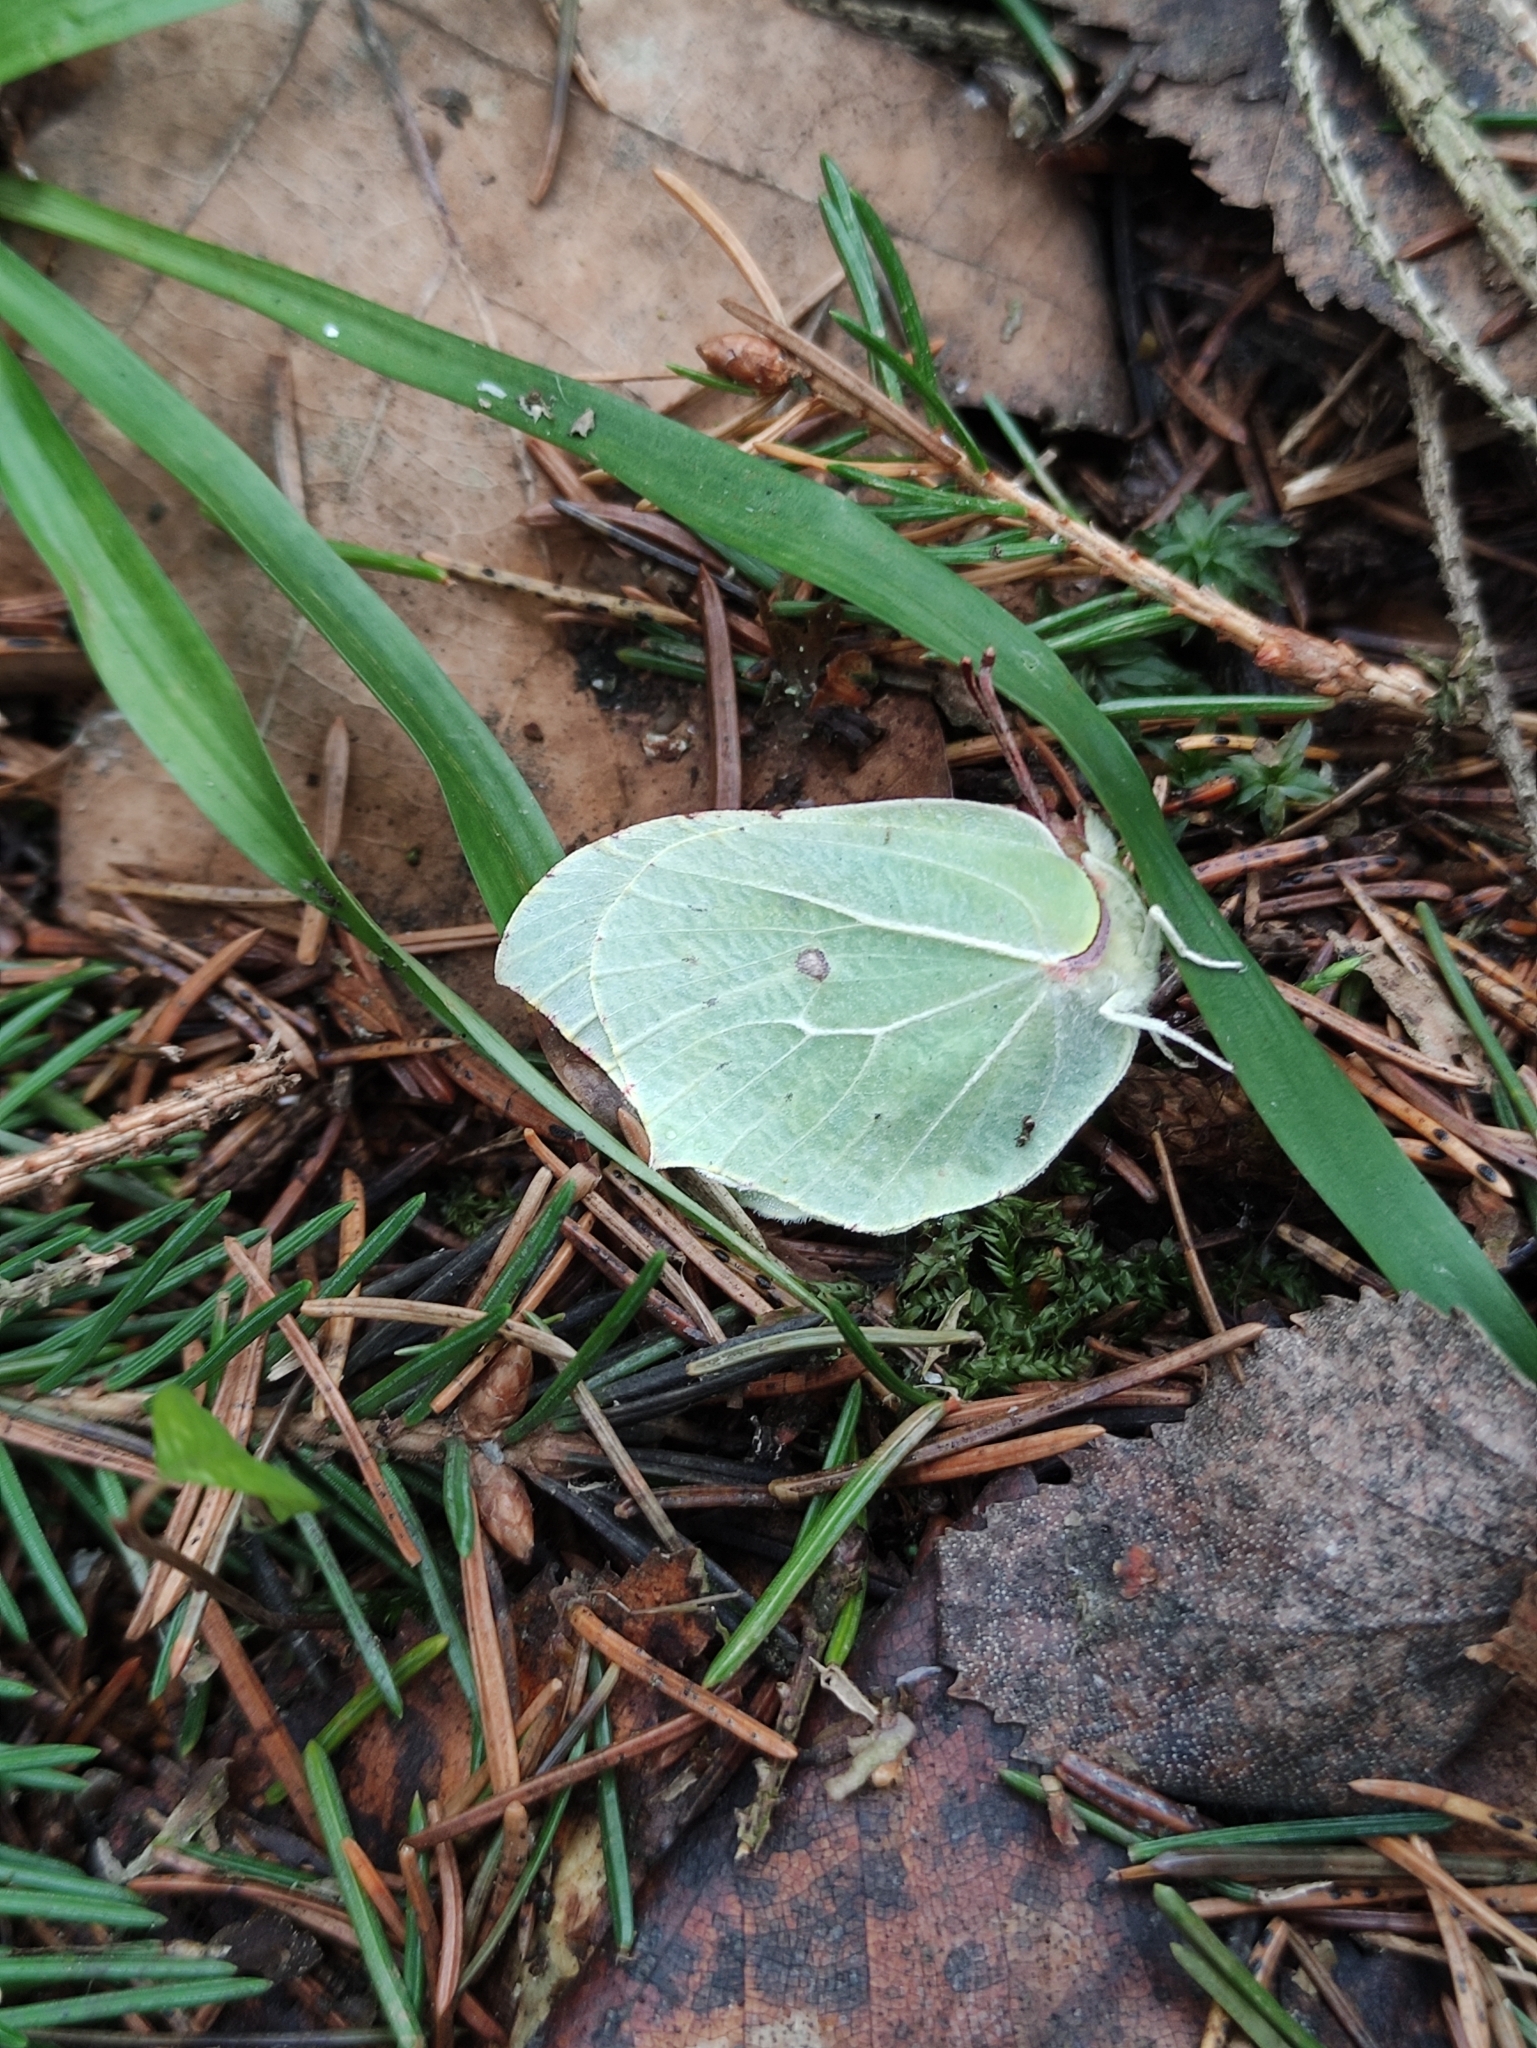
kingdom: Animalia
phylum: Arthropoda
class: Insecta
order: Lepidoptera
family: Pieridae
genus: Gonepteryx
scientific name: Gonepteryx rhamni
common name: Brimstone
